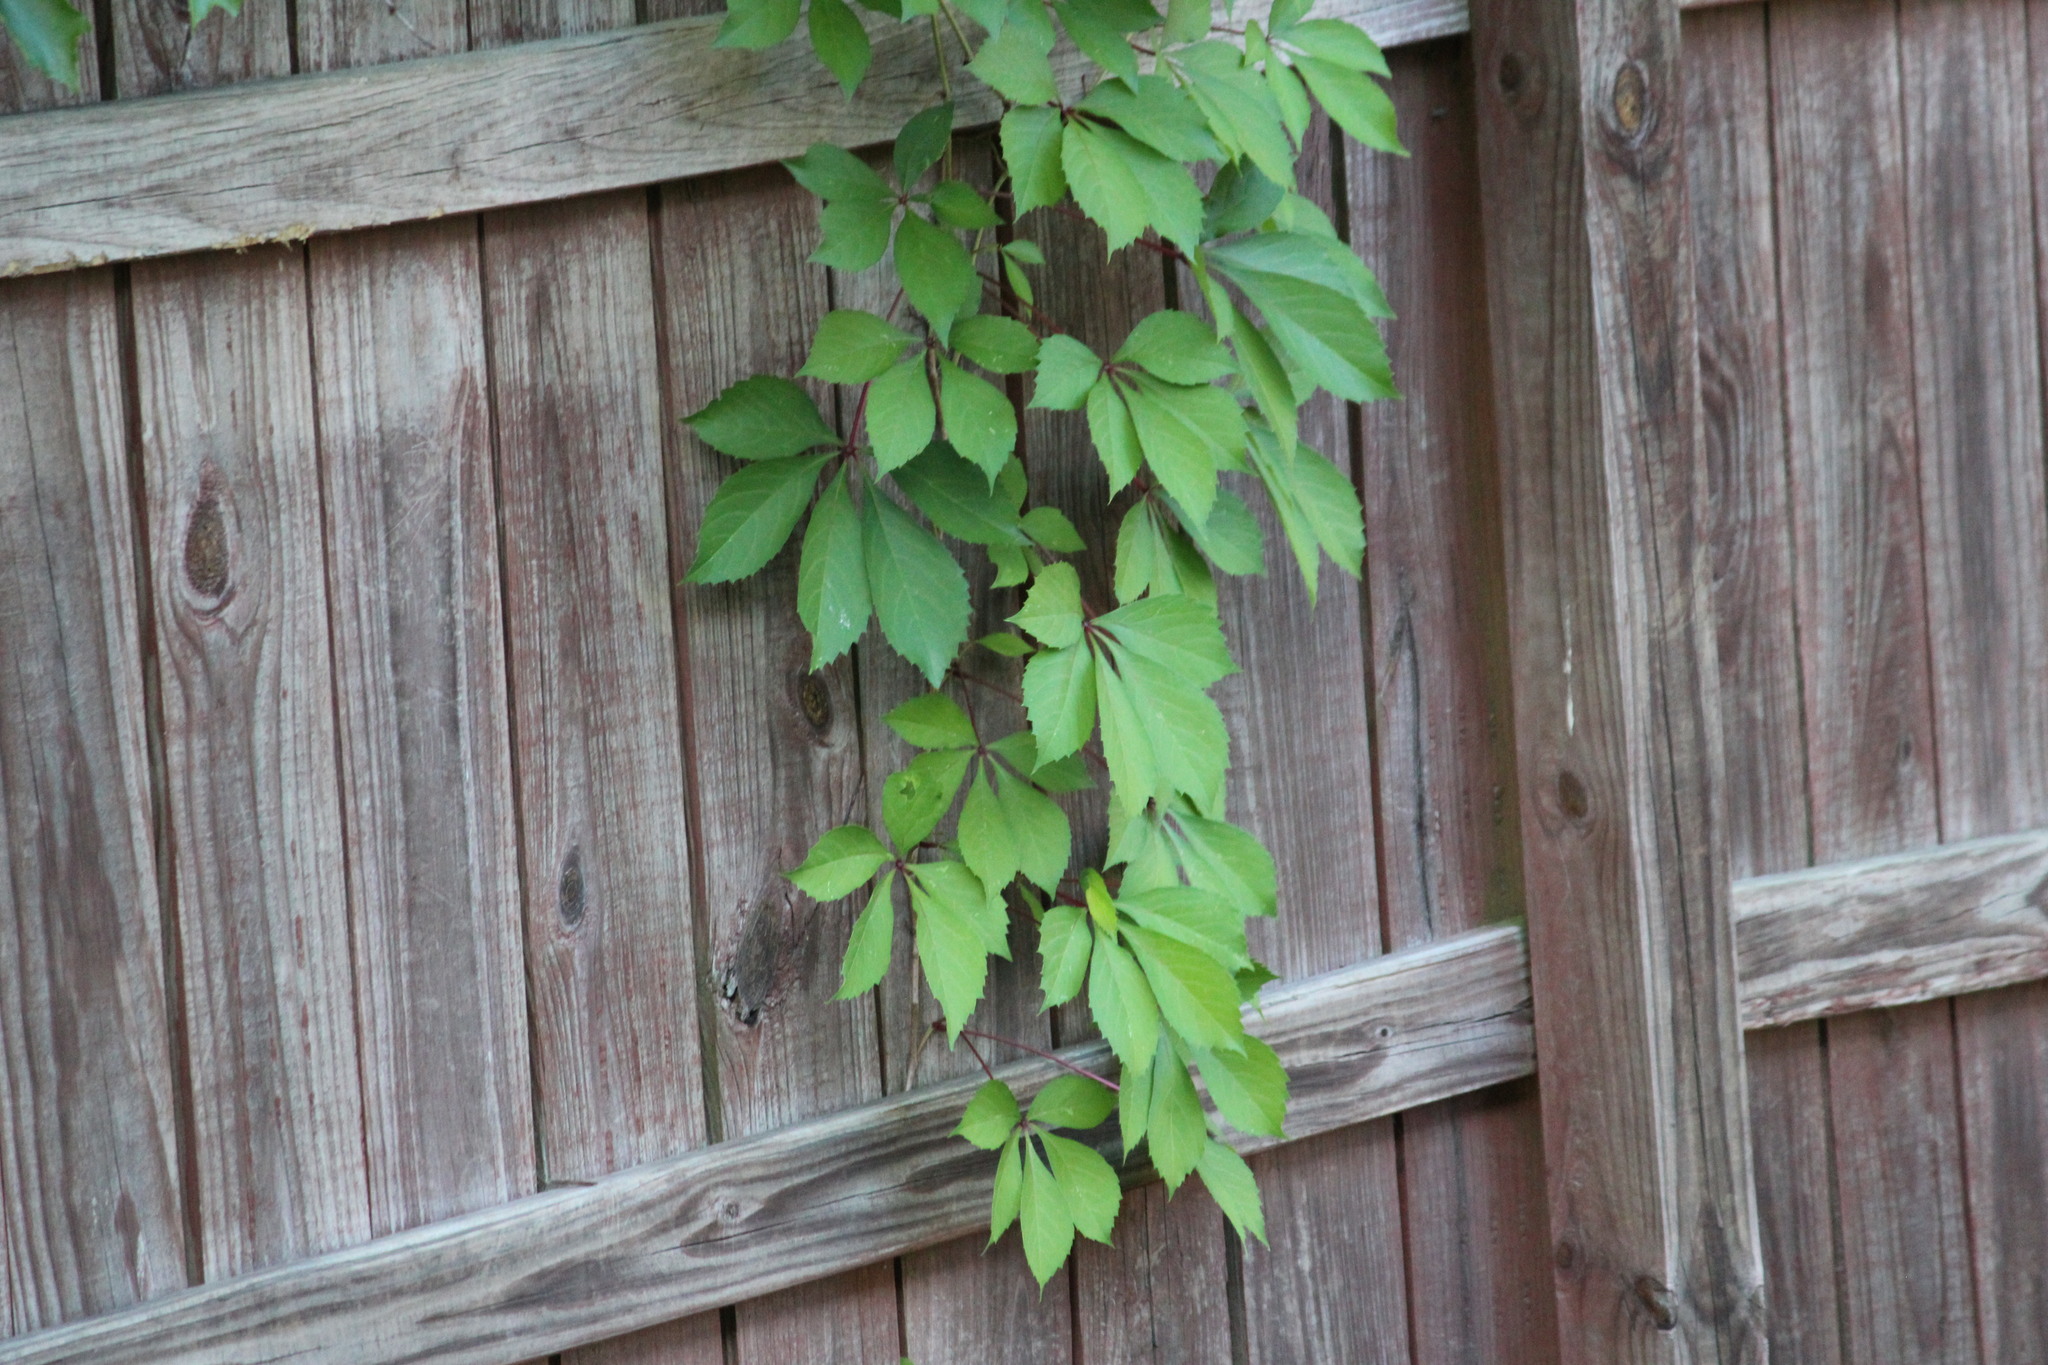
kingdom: Plantae
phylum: Tracheophyta
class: Magnoliopsida
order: Vitales
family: Vitaceae
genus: Parthenocissus
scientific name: Parthenocissus quinquefolia
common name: Virginia-creeper
